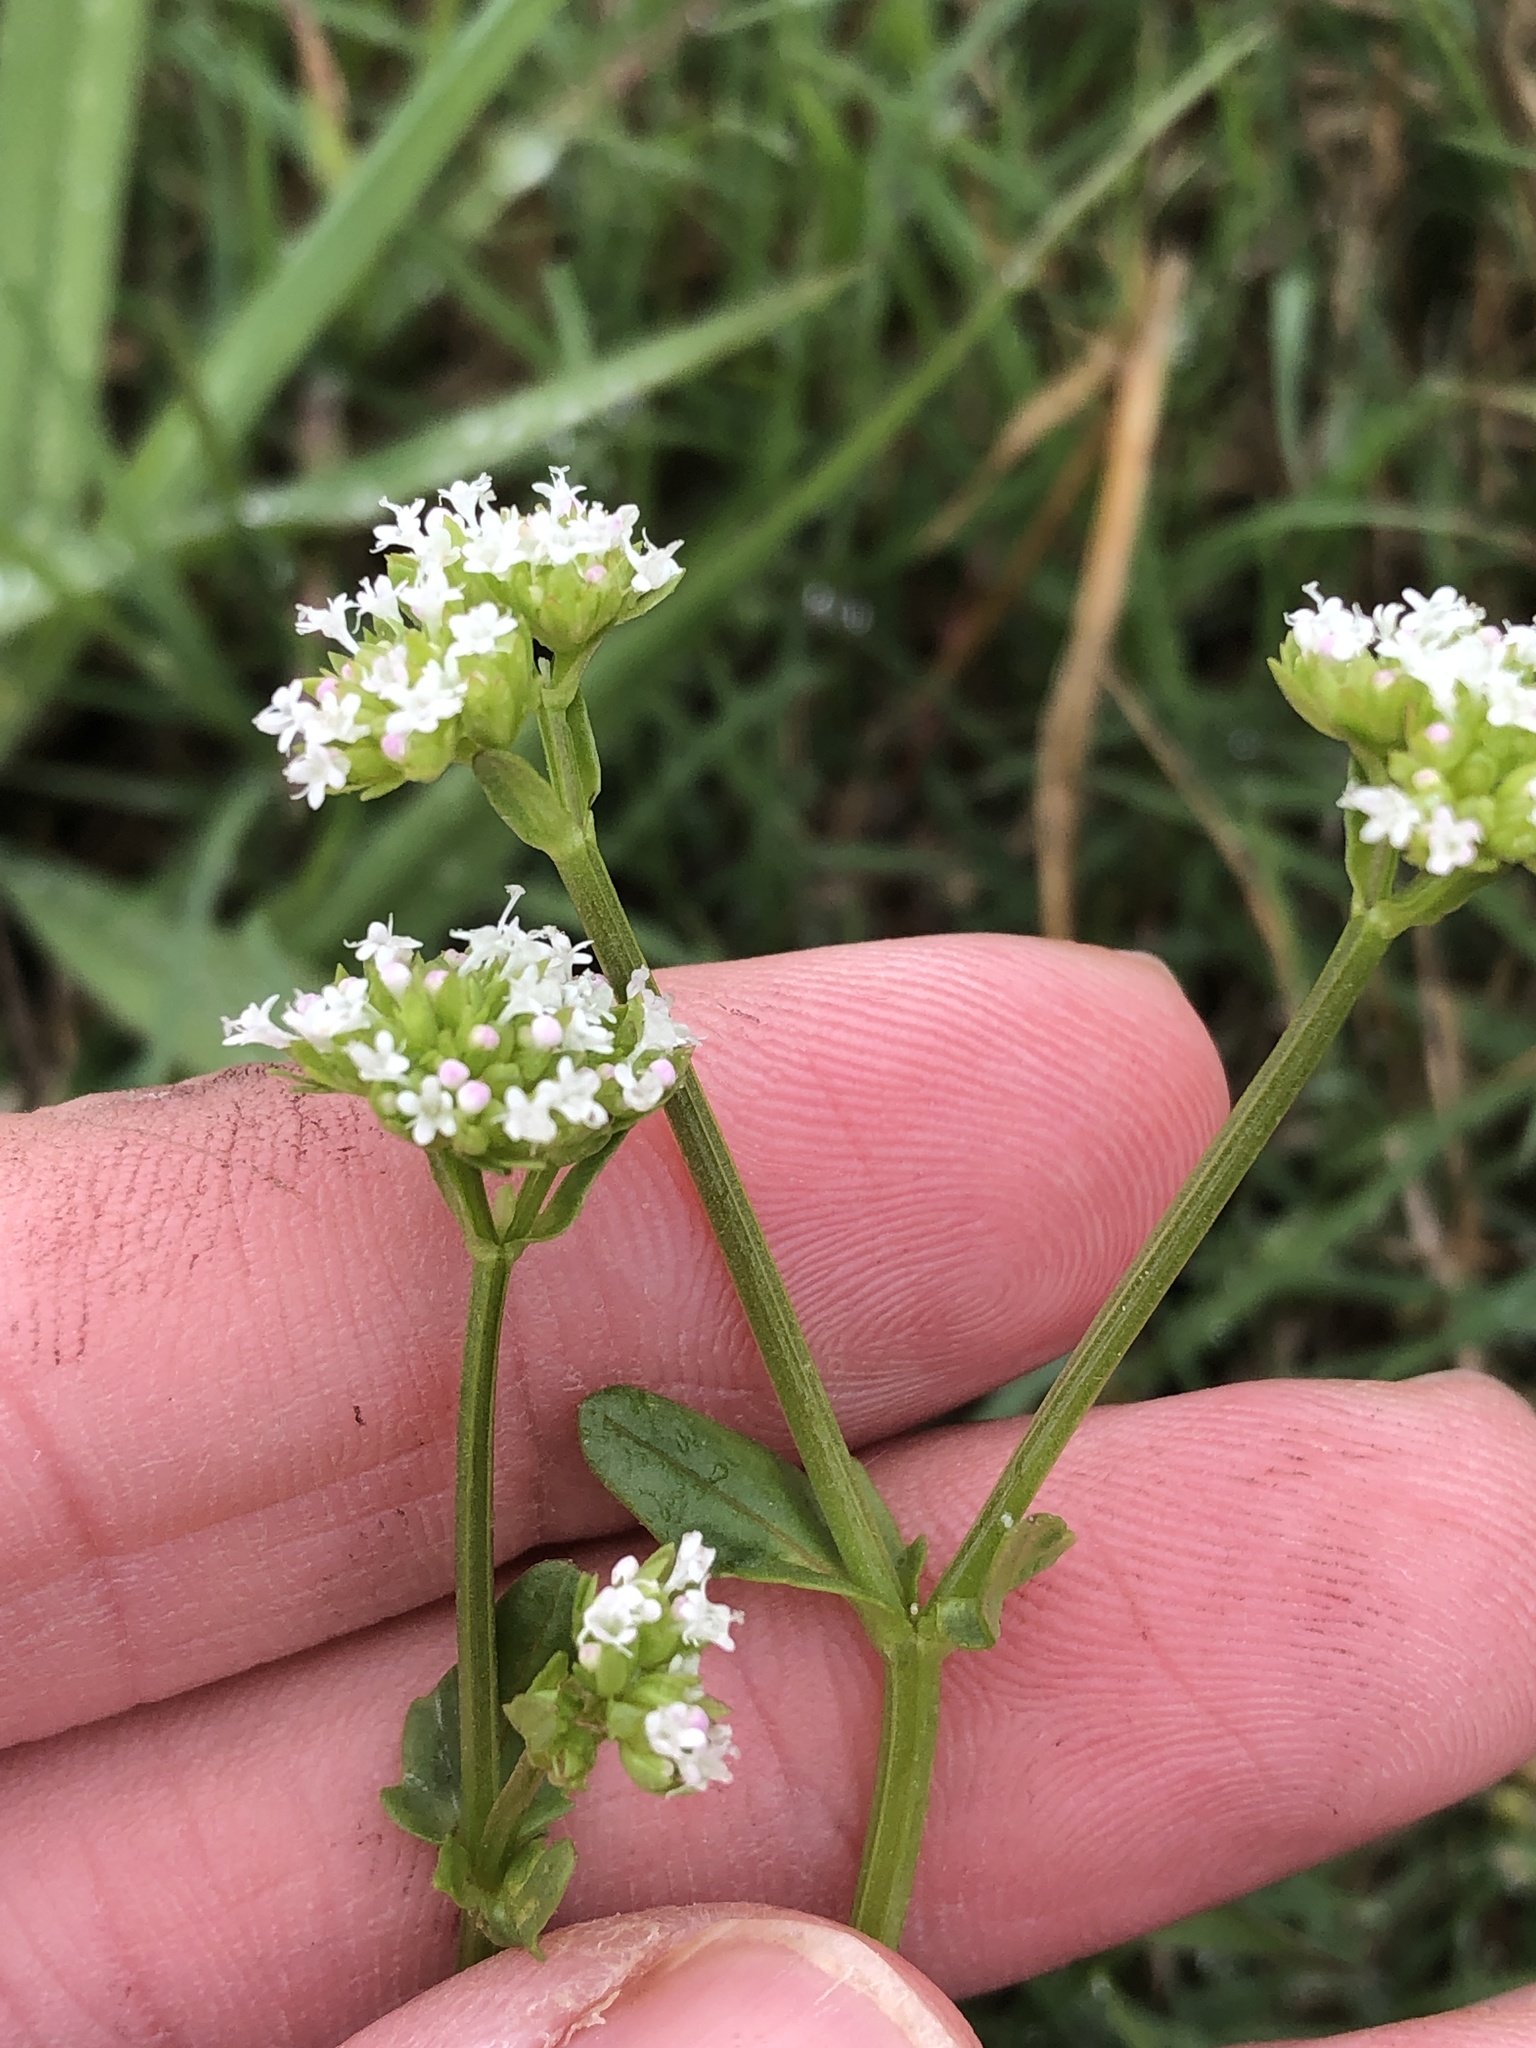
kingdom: Plantae
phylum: Tracheophyta
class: Magnoliopsida
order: Dipsacales
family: Caprifoliaceae
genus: Valerianella
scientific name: Valerianella radiata
